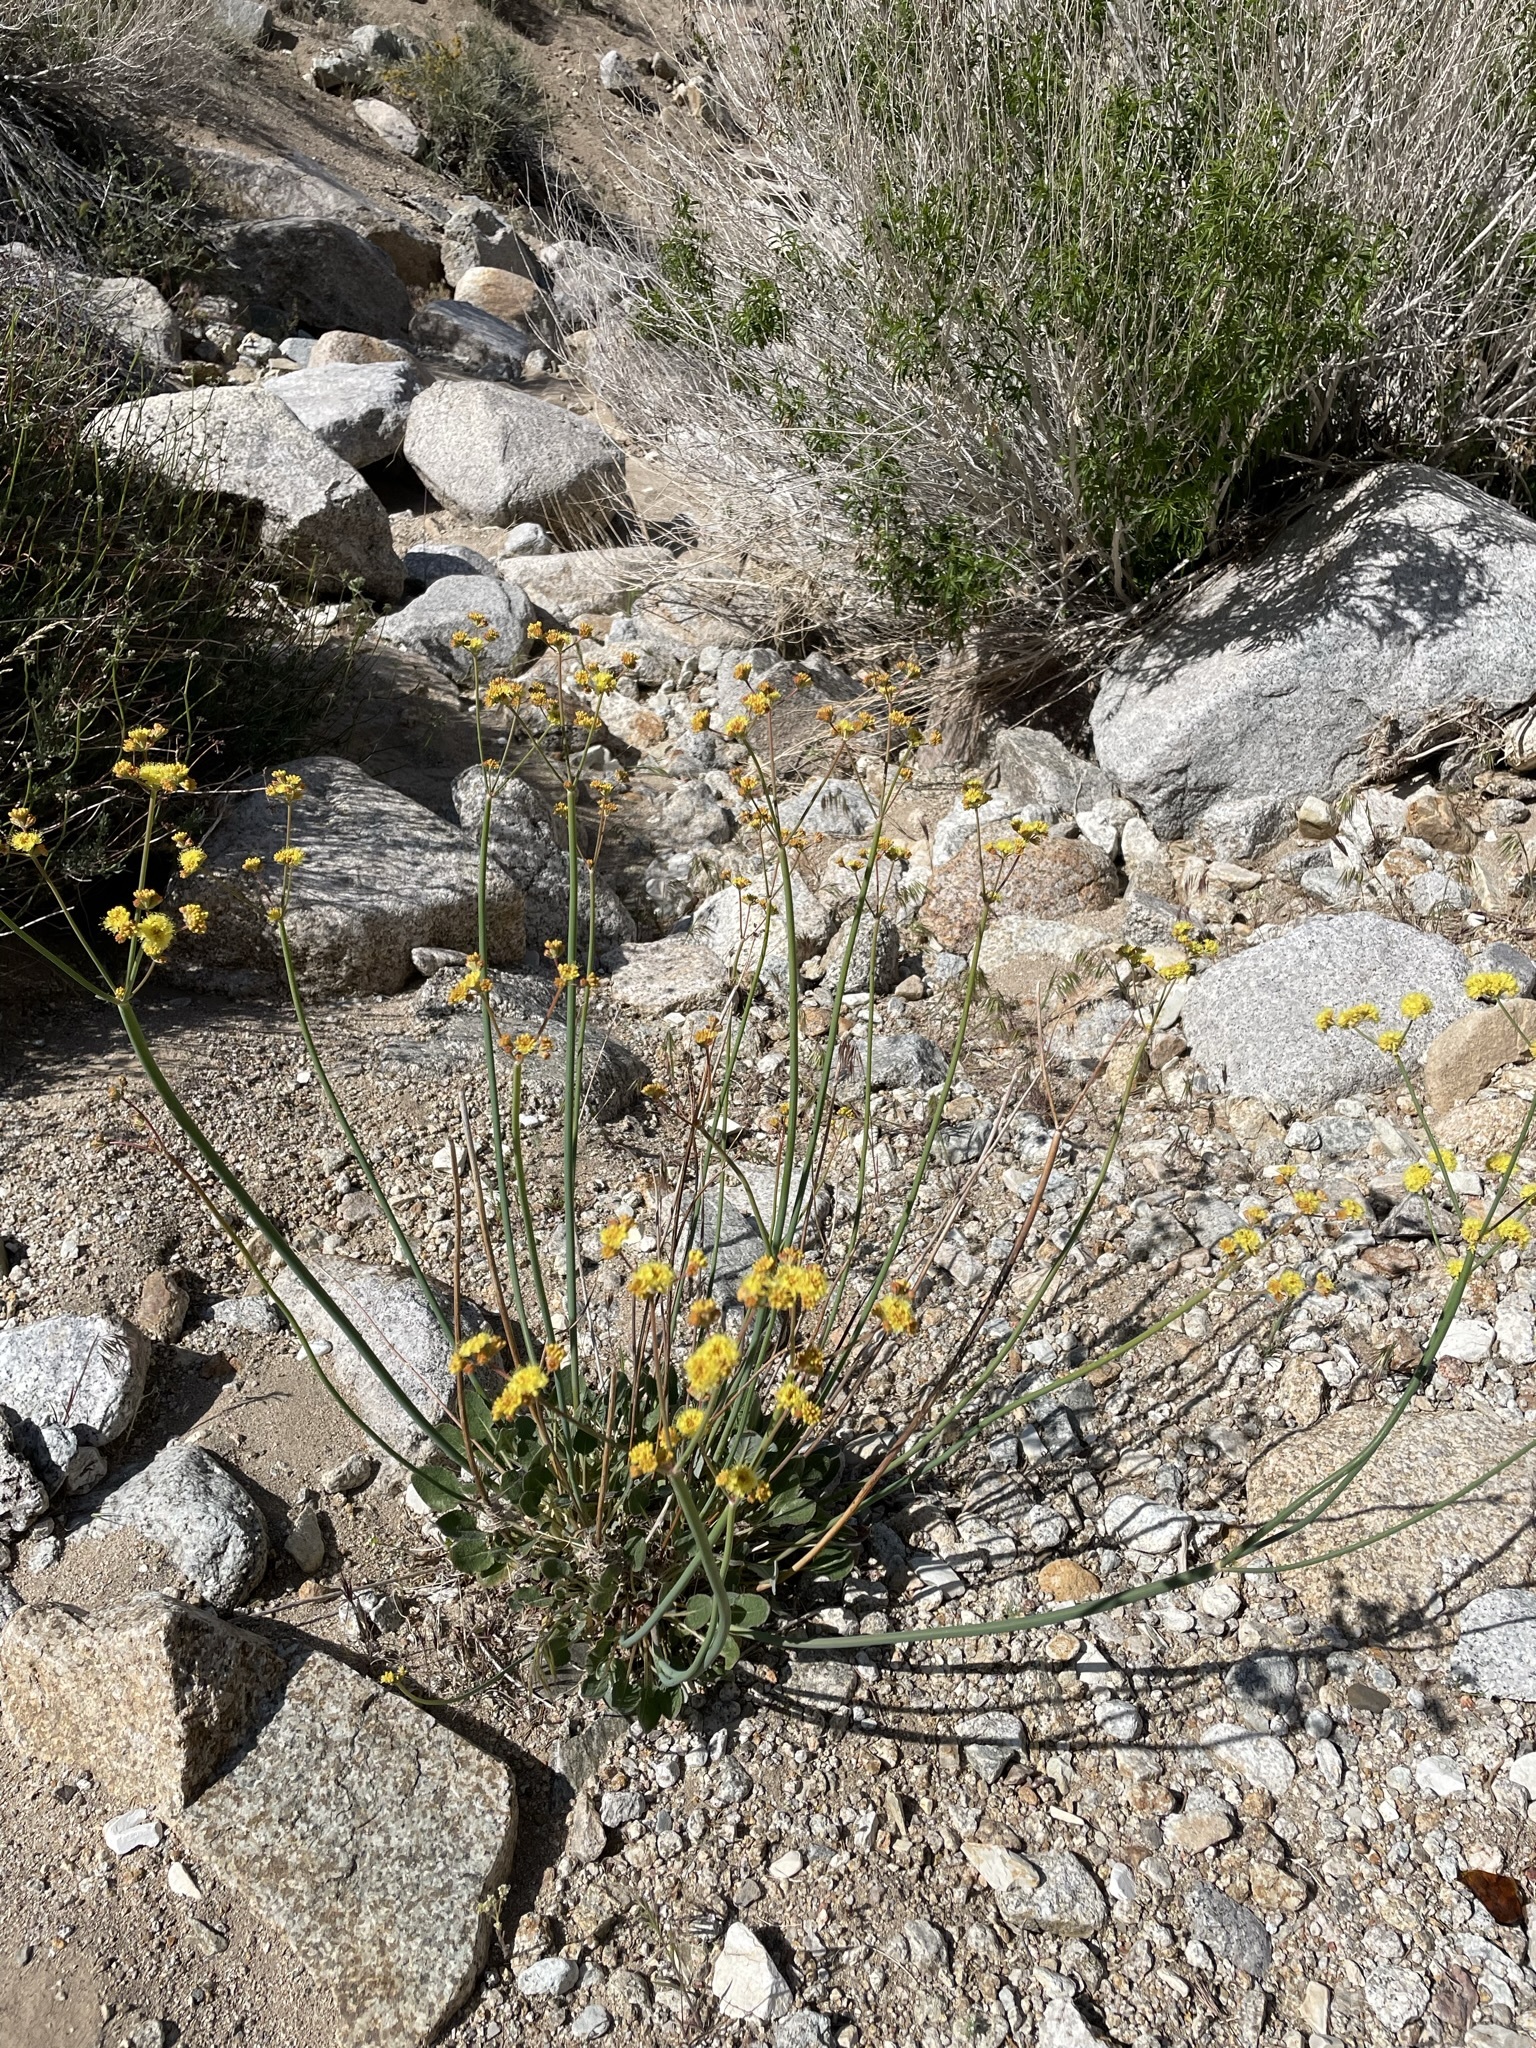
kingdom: Plantae
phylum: Tracheophyta
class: Magnoliopsida
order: Caryophyllales
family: Polygonaceae
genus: Eriogonum
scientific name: Eriogonum nudum
